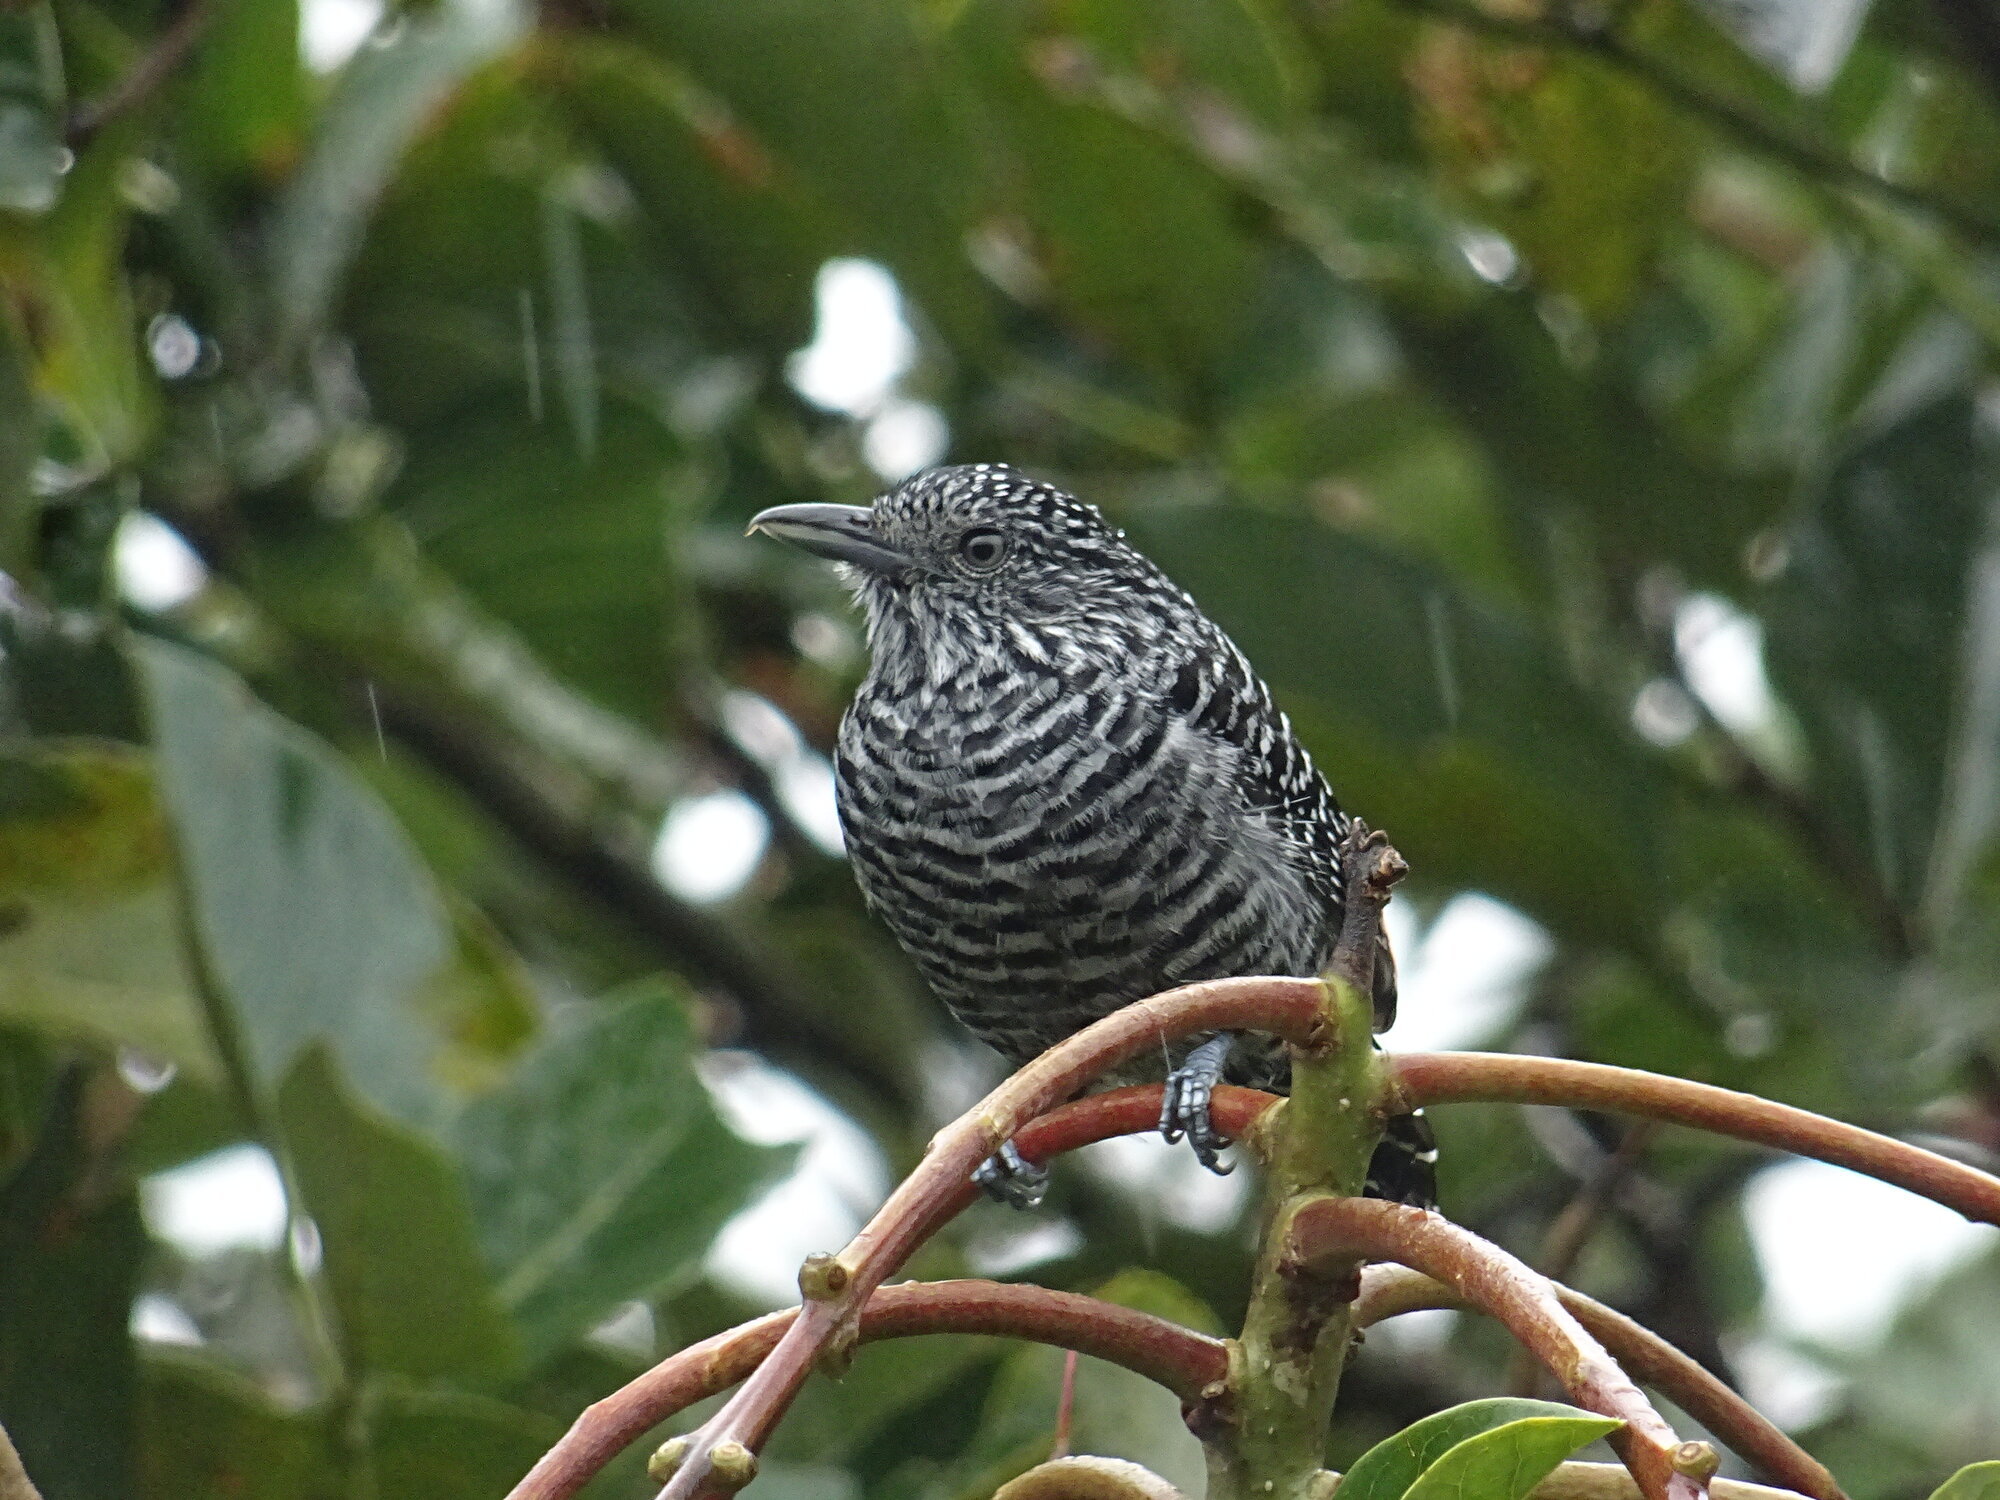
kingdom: Animalia
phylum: Chordata
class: Aves
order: Passeriformes
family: Thamnophilidae
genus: Thamnophilus
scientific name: Thamnophilus multistriatus
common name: Bar-crested antshrike
